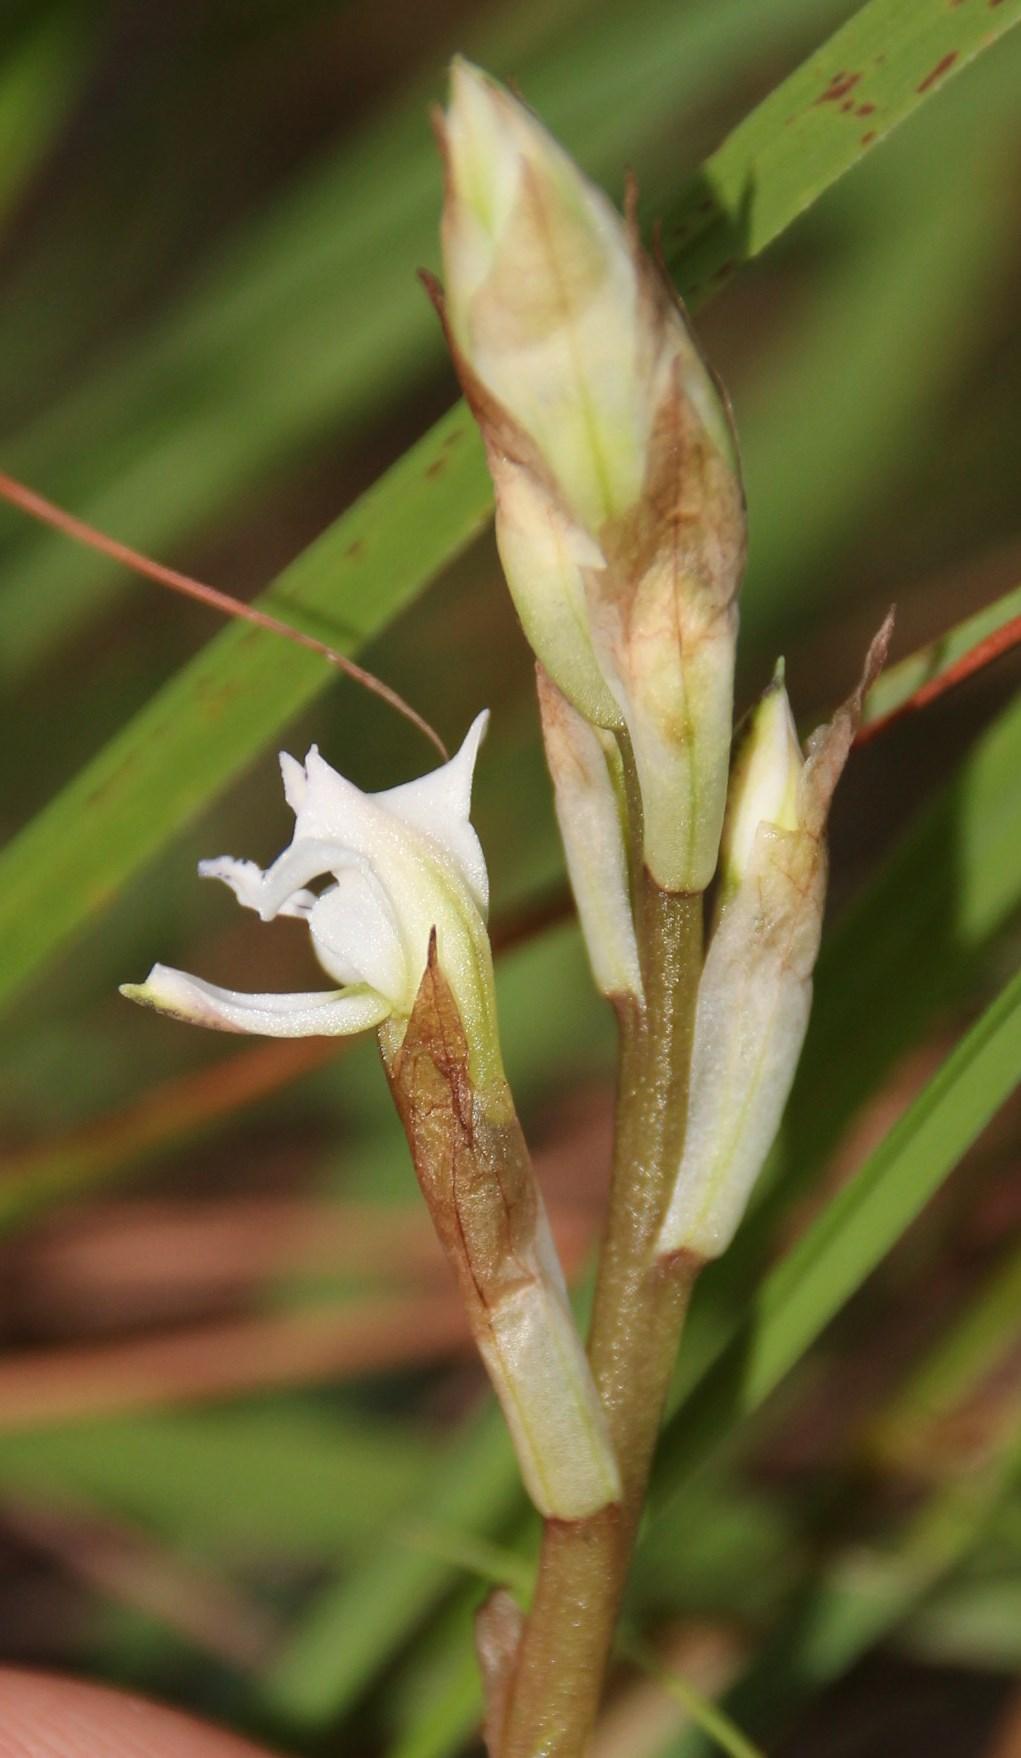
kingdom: Plantae
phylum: Tracheophyta
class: Liliopsida
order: Asparagales
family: Orchidaceae
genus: Disa
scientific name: Disa sagittalis
